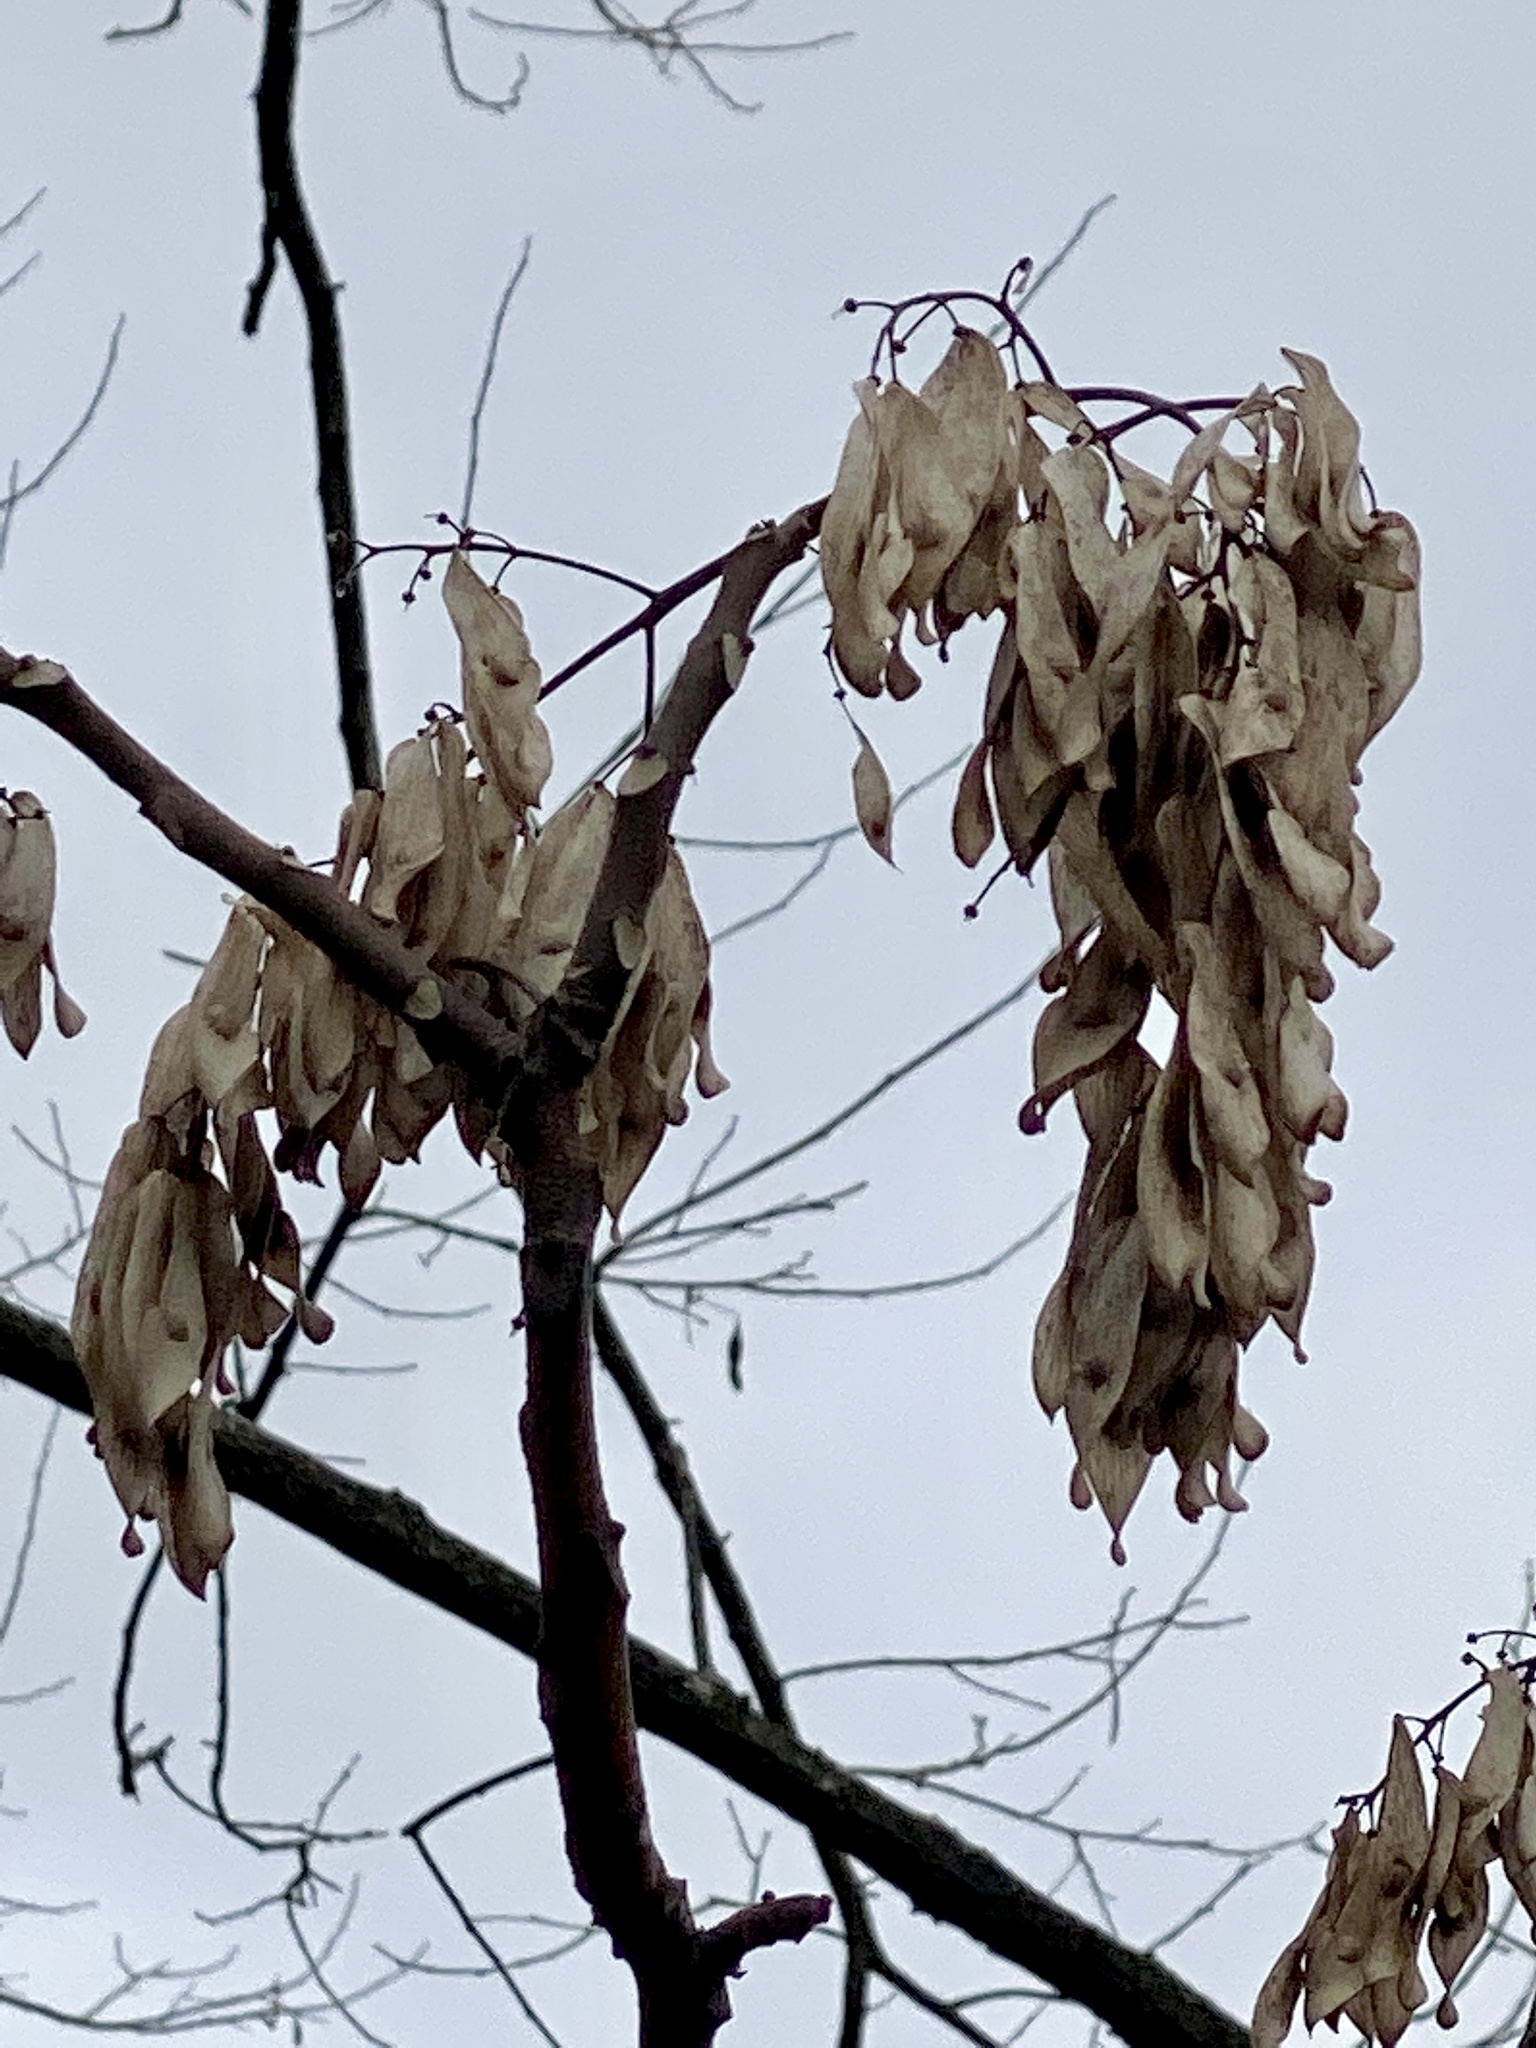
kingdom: Plantae
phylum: Tracheophyta
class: Magnoliopsida
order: Sapindales
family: Simaroubaceae
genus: Ailanthus
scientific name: Ailanthus altissima
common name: Tree-of-heaven
